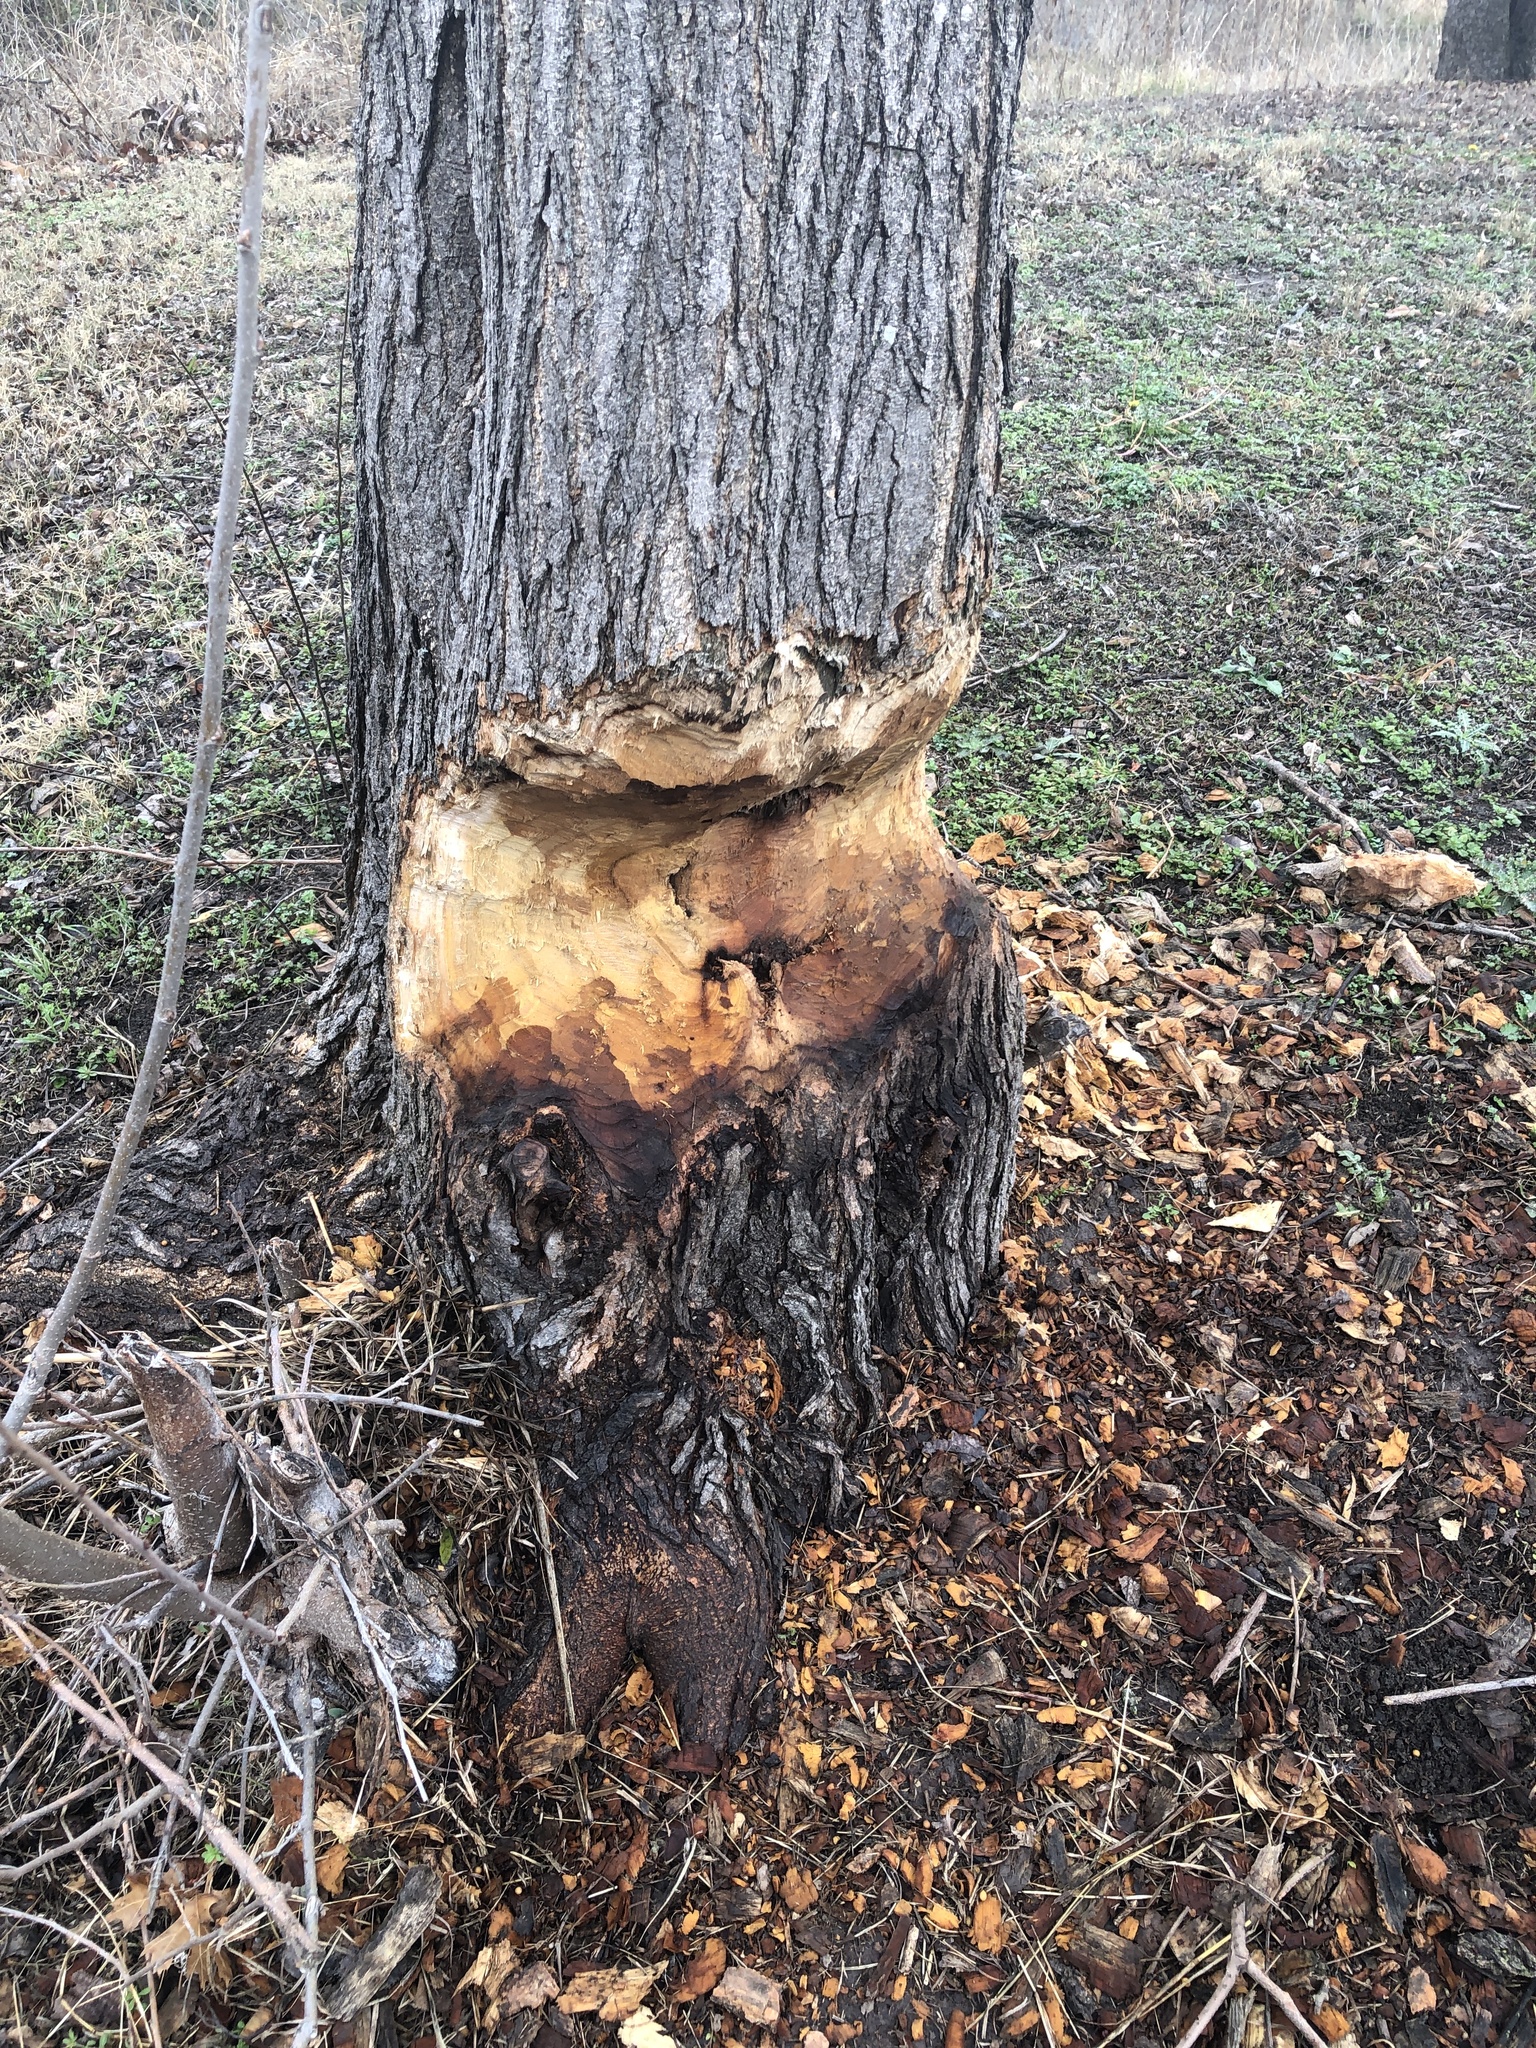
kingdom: Animalia
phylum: Chordata
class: Mammalia
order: Rodentia
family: Castoridae
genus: Castor
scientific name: Castor canadensis
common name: American beaver
